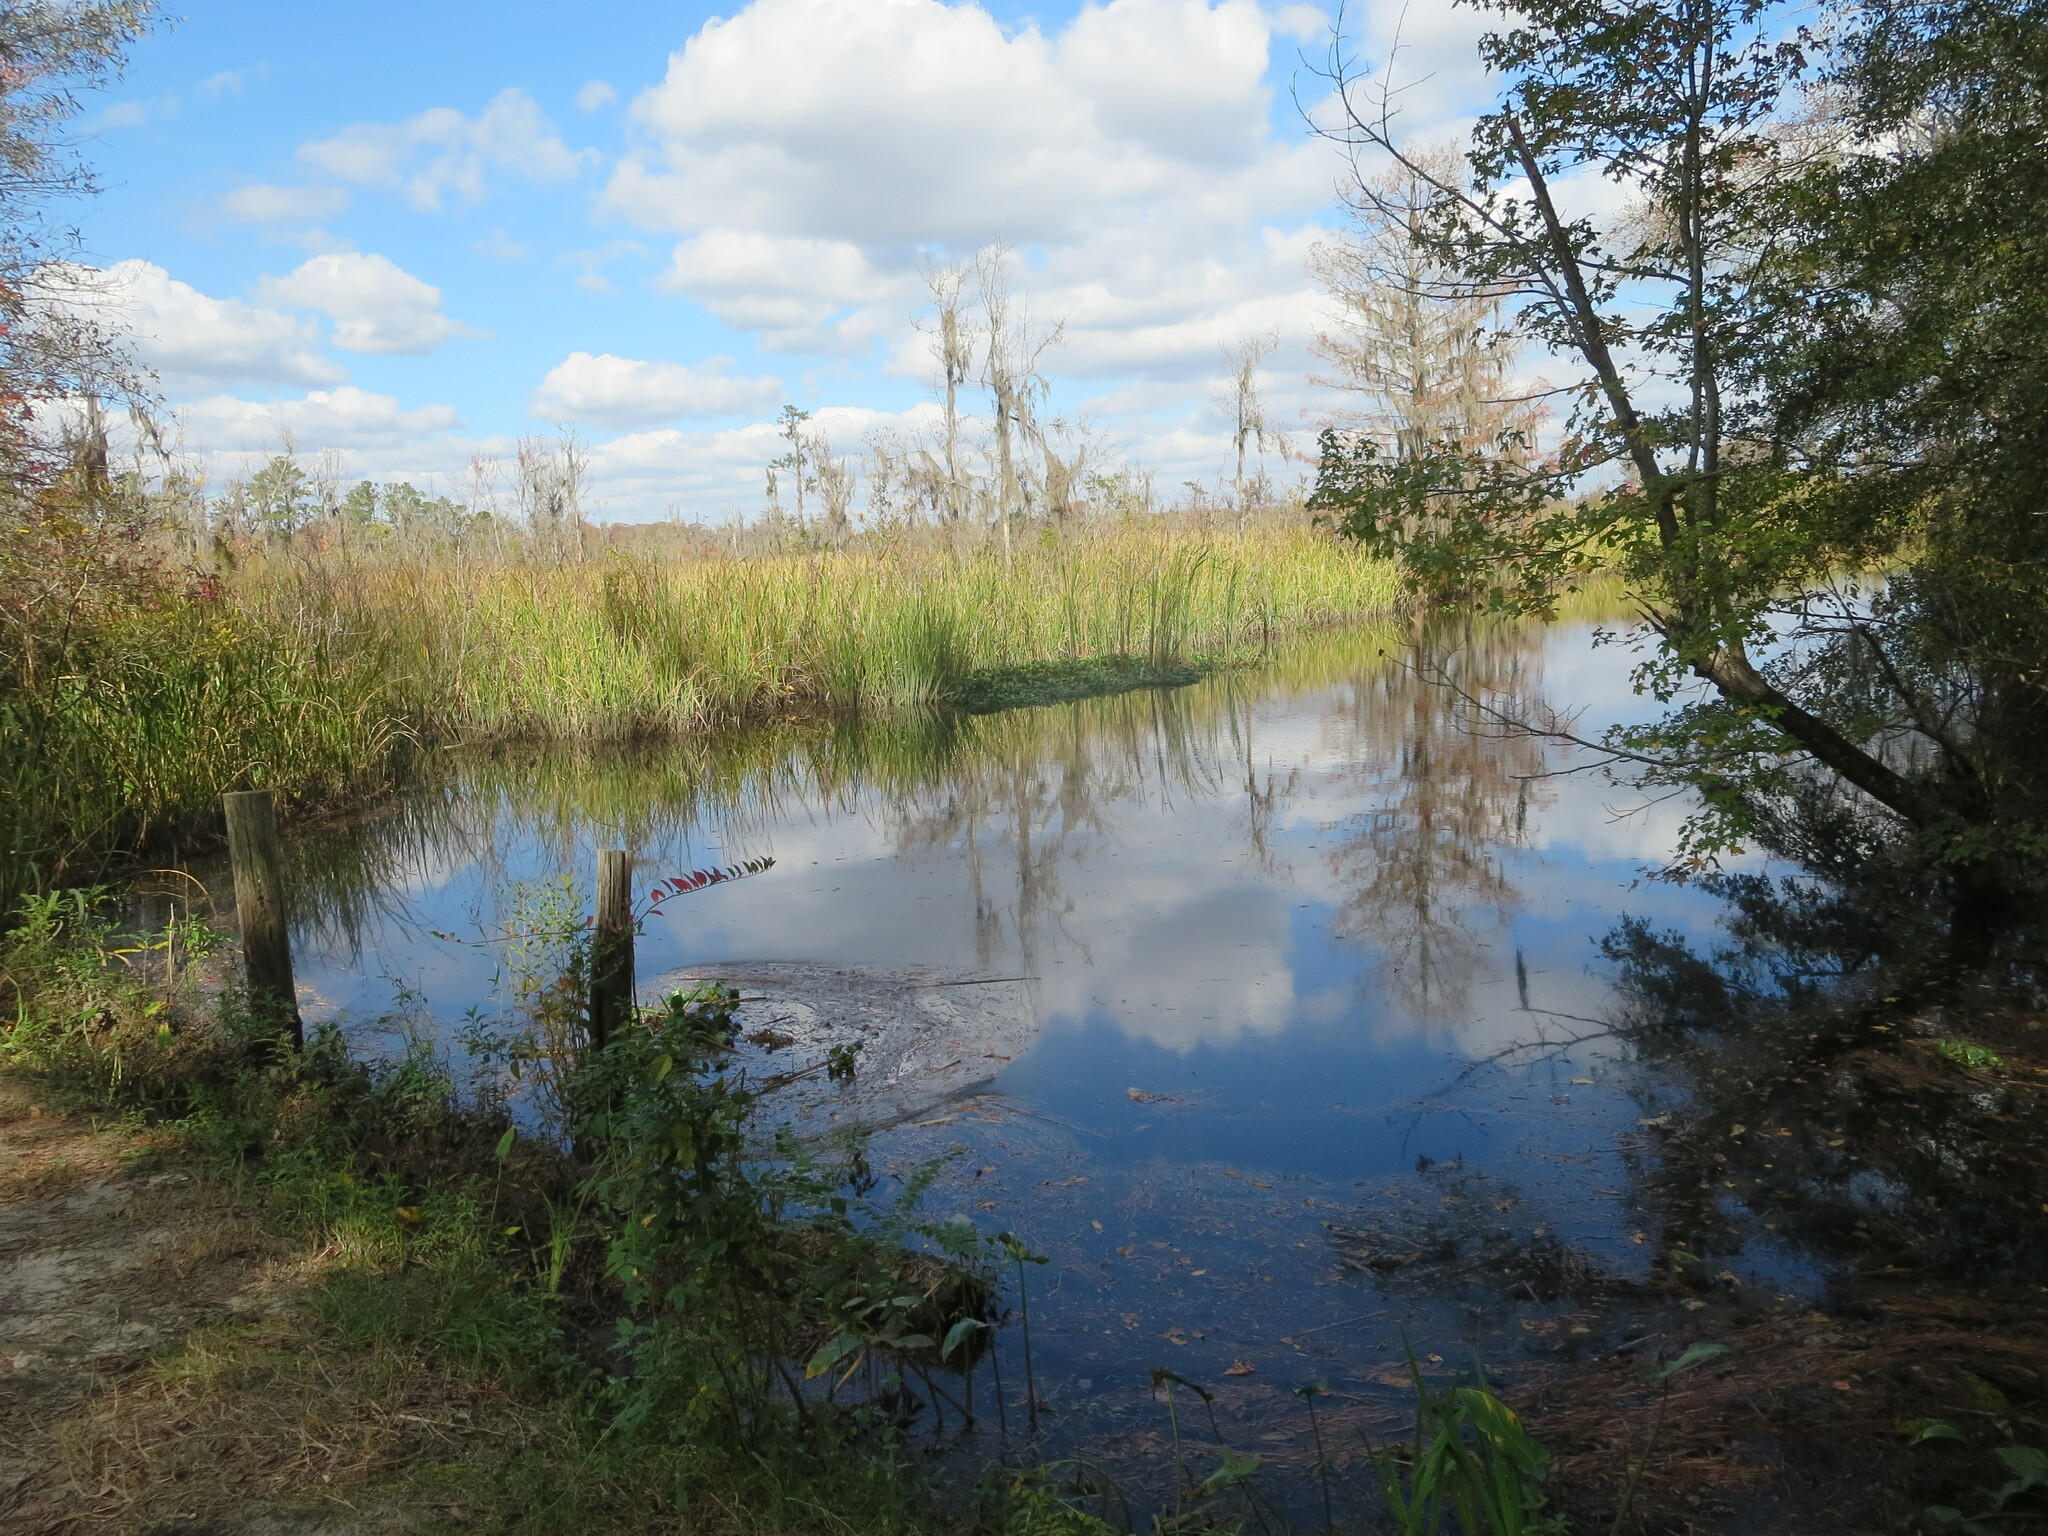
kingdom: Plantae
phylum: Tracheophyta
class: Liliopsida
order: Commelinales
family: Pontederiaceae
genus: Pontederia
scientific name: Pontederia crassipes
